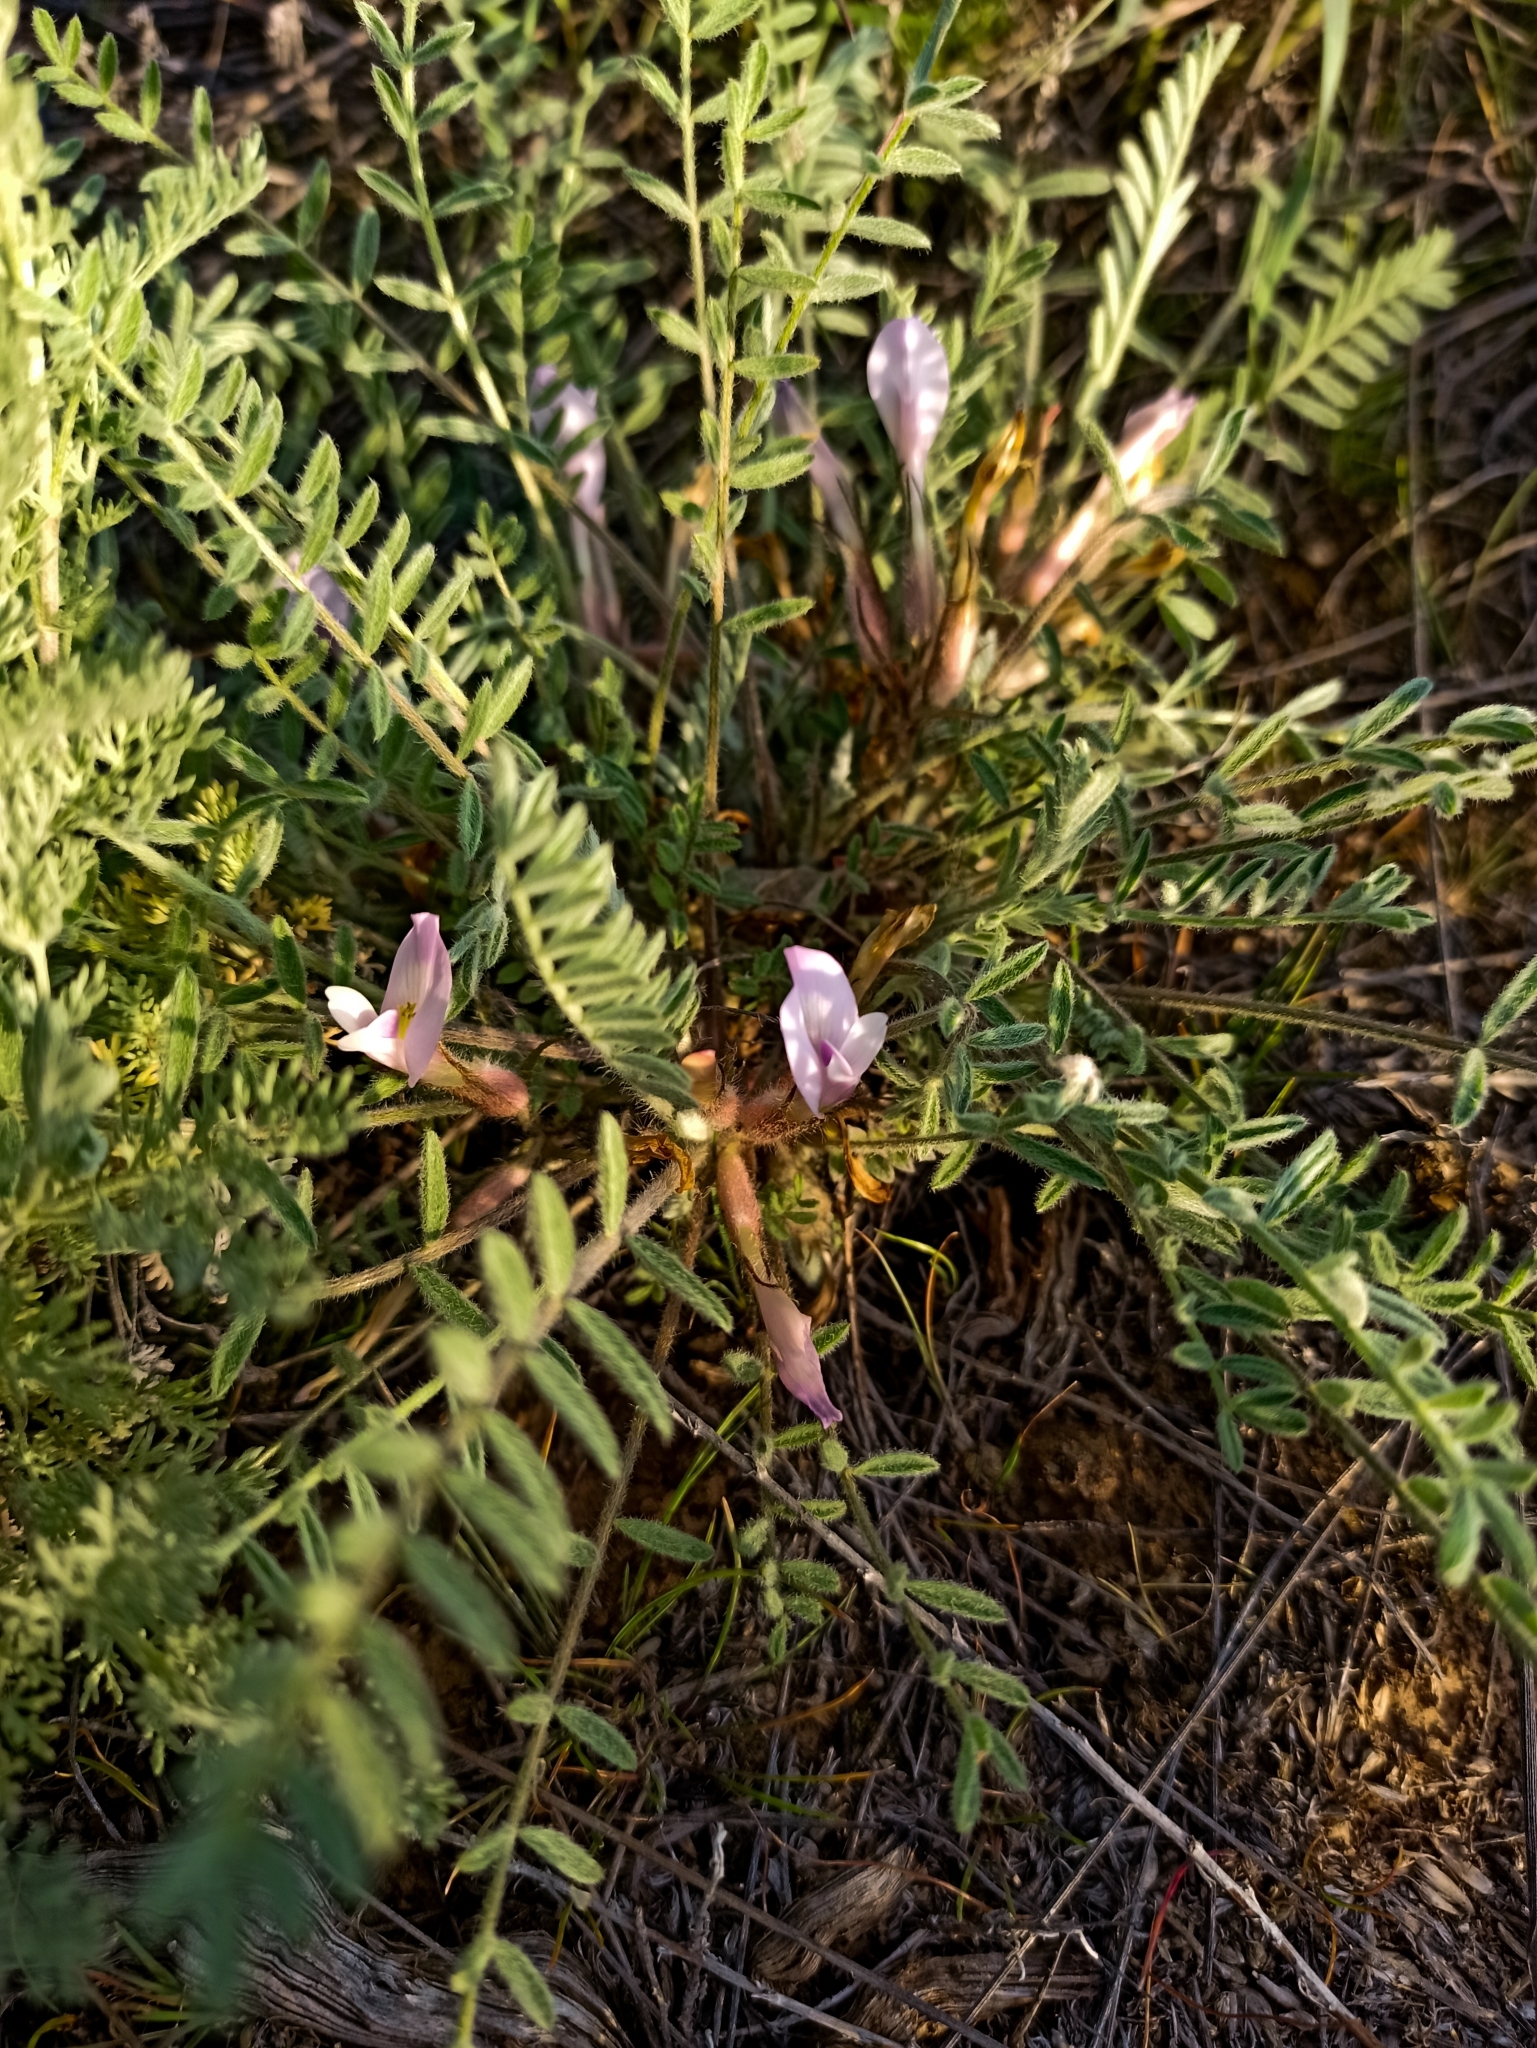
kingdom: Plantae
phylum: Tracheophyta
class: Magnoliopsida
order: Fabales
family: Fabaceae
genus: Astragalus
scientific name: Astragalus testiculatus
